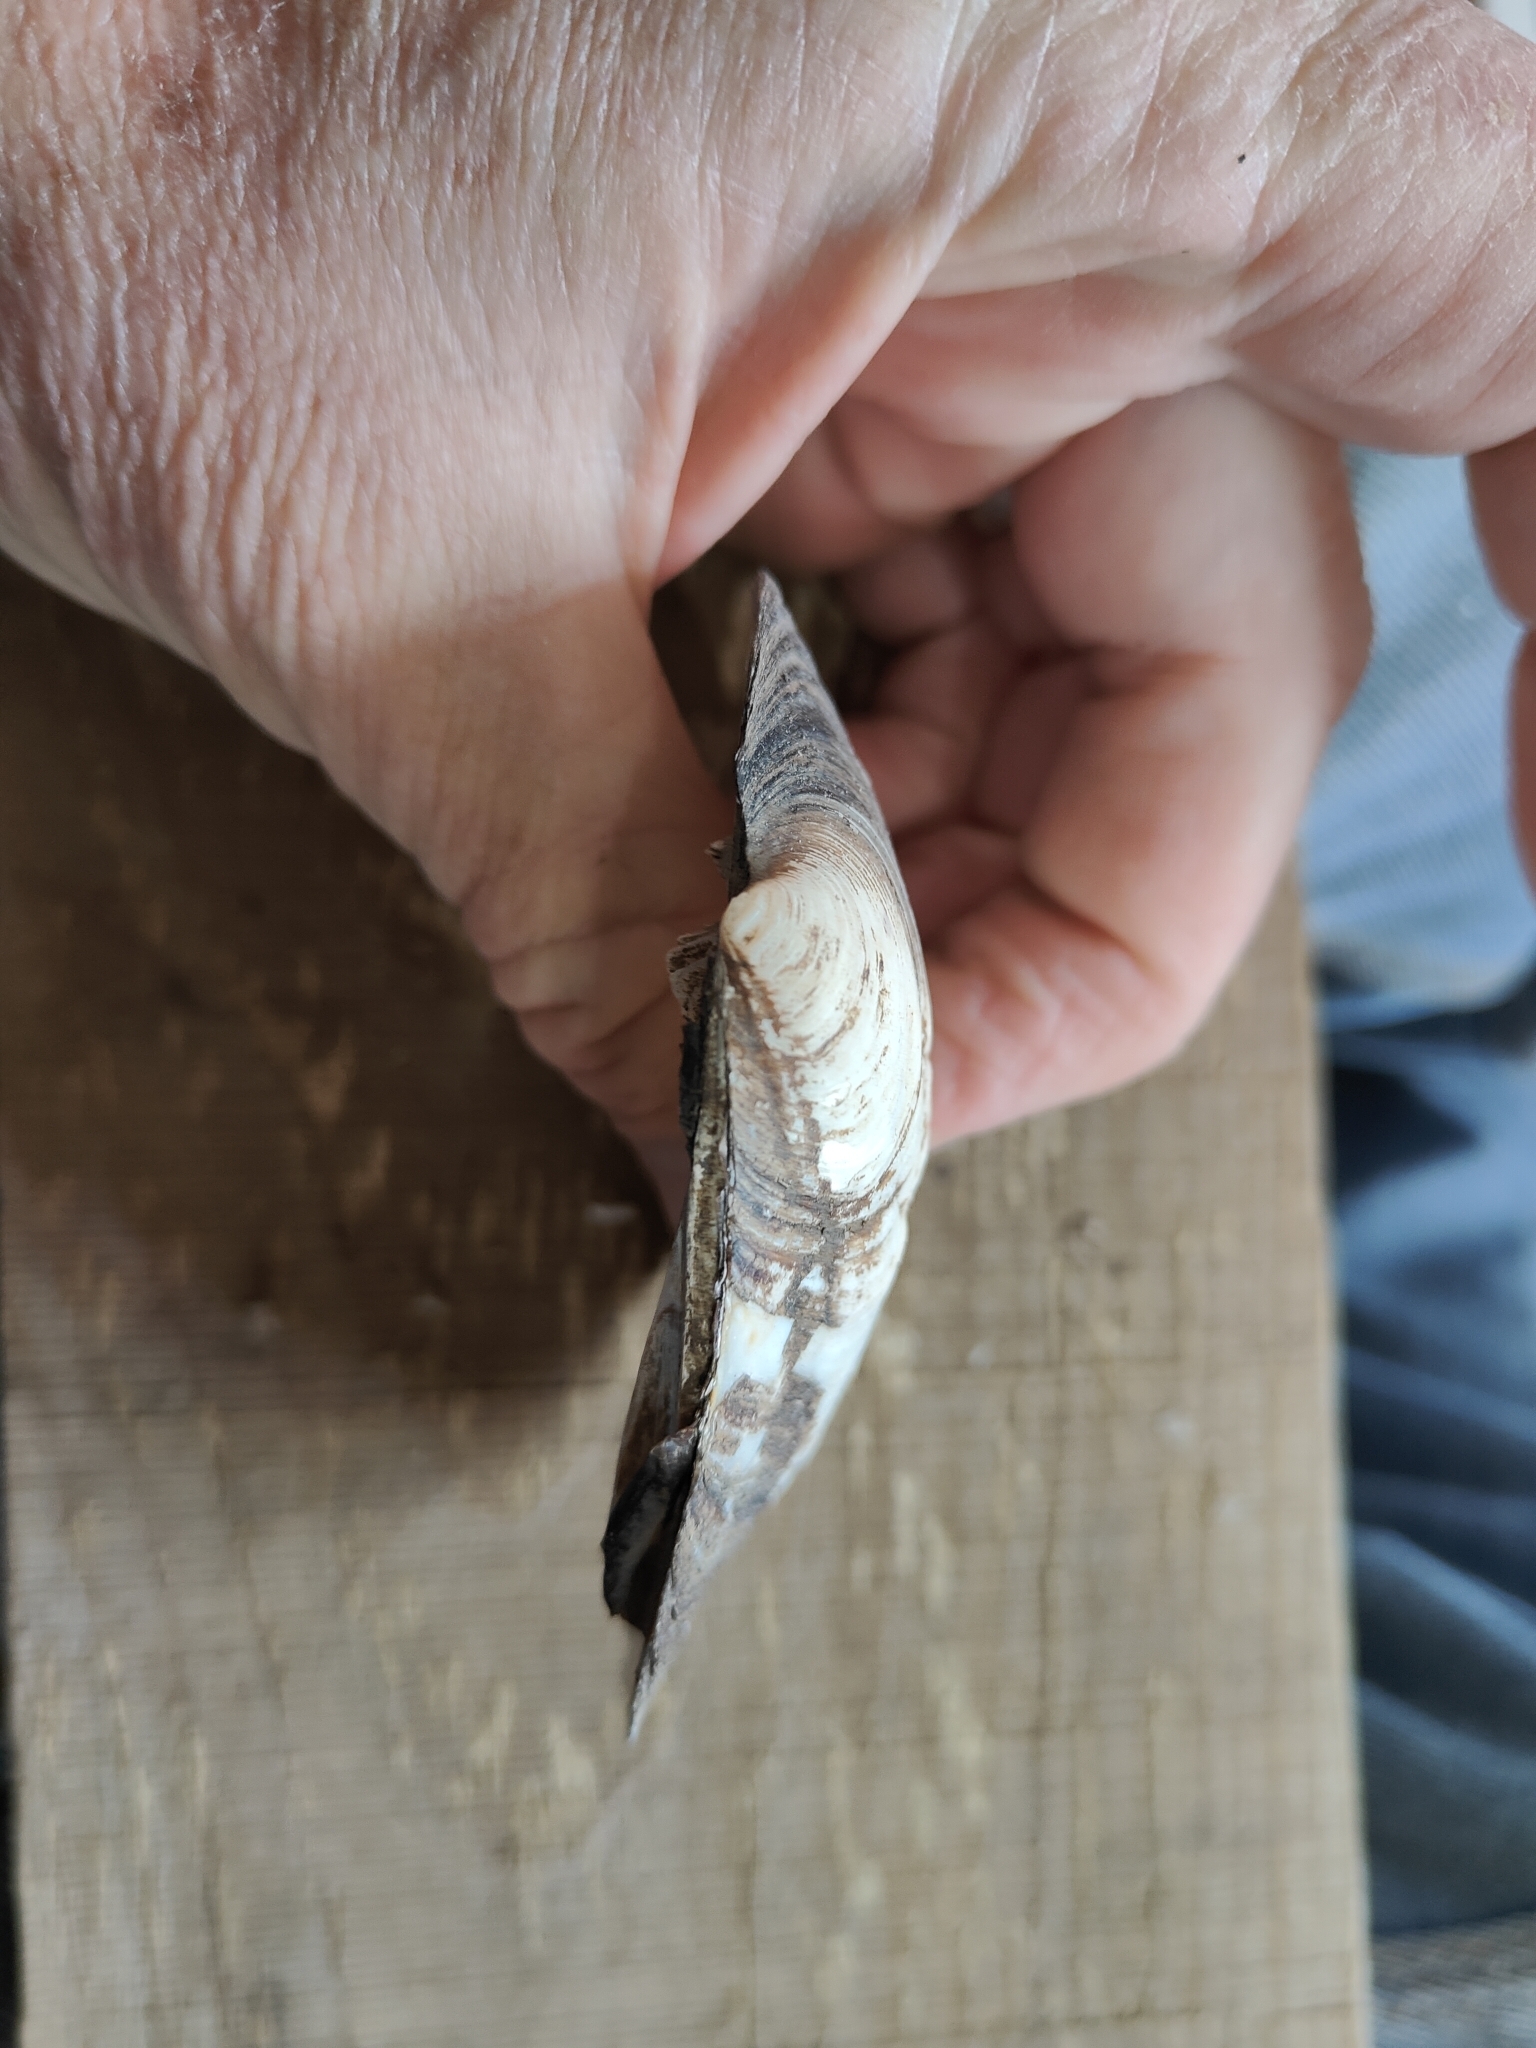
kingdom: Animalia
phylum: Mollusca
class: Bivalvia
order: Unionida
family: Unionidae
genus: Amblema
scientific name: Amblema plicata
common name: Threeridge
